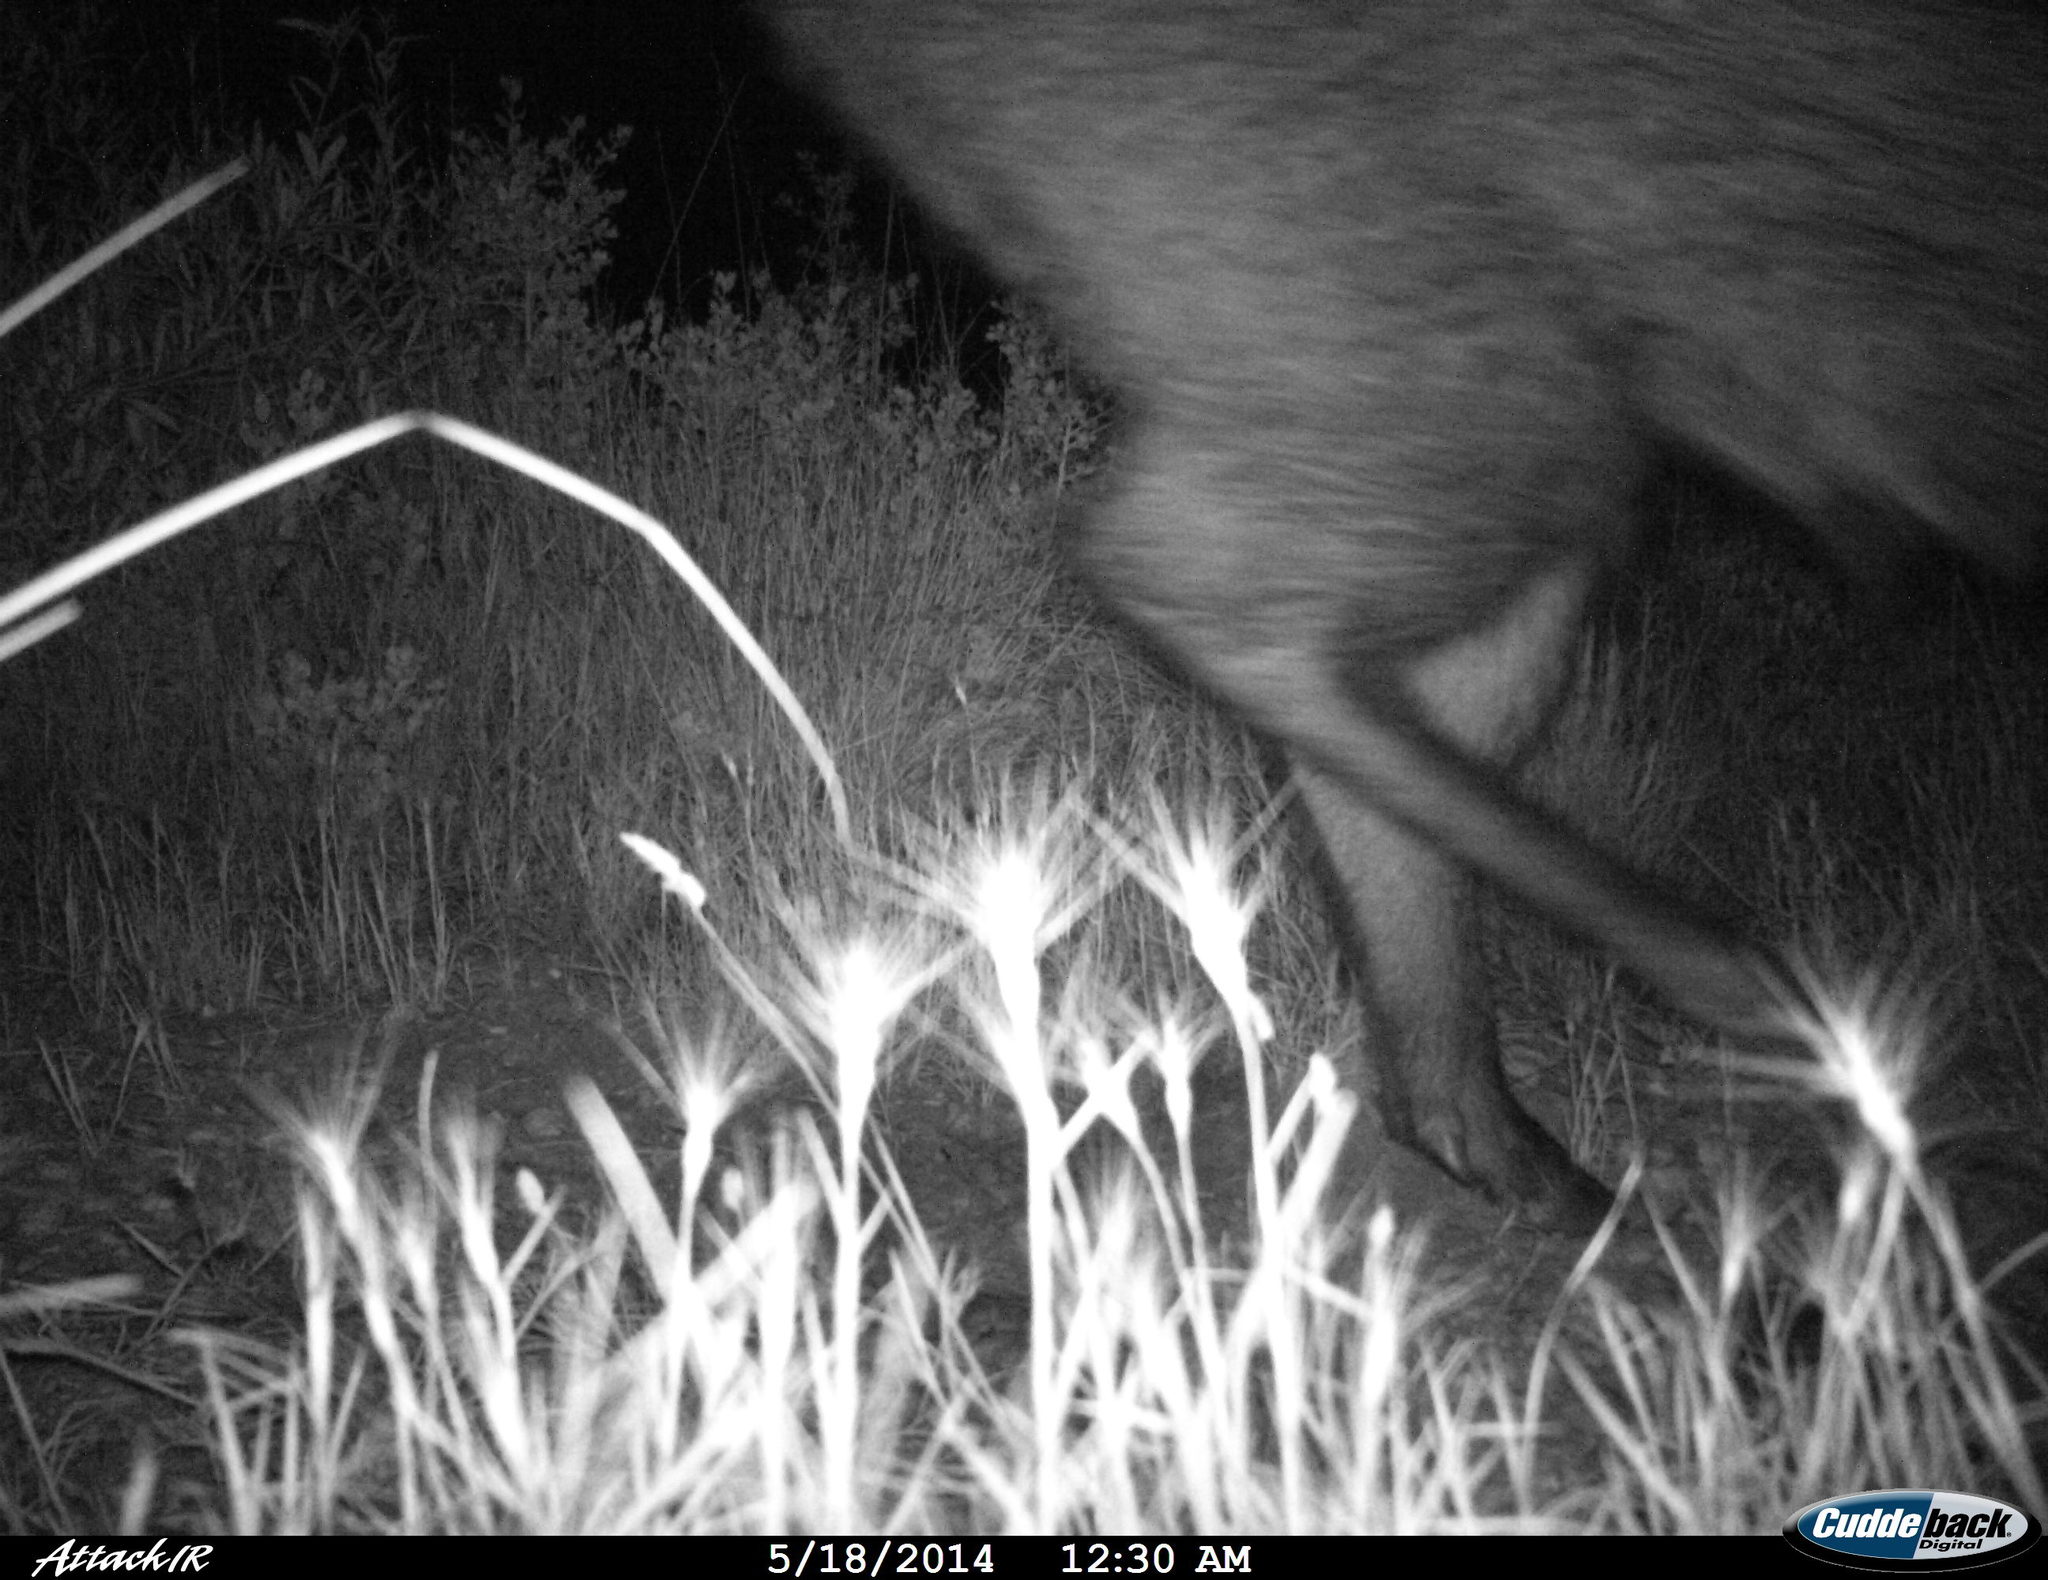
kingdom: Animalia
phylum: Chordata
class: Mammalia
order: Artiodactyla
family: Suidae
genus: Sus
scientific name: Sus scrofa
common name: Wild boar
